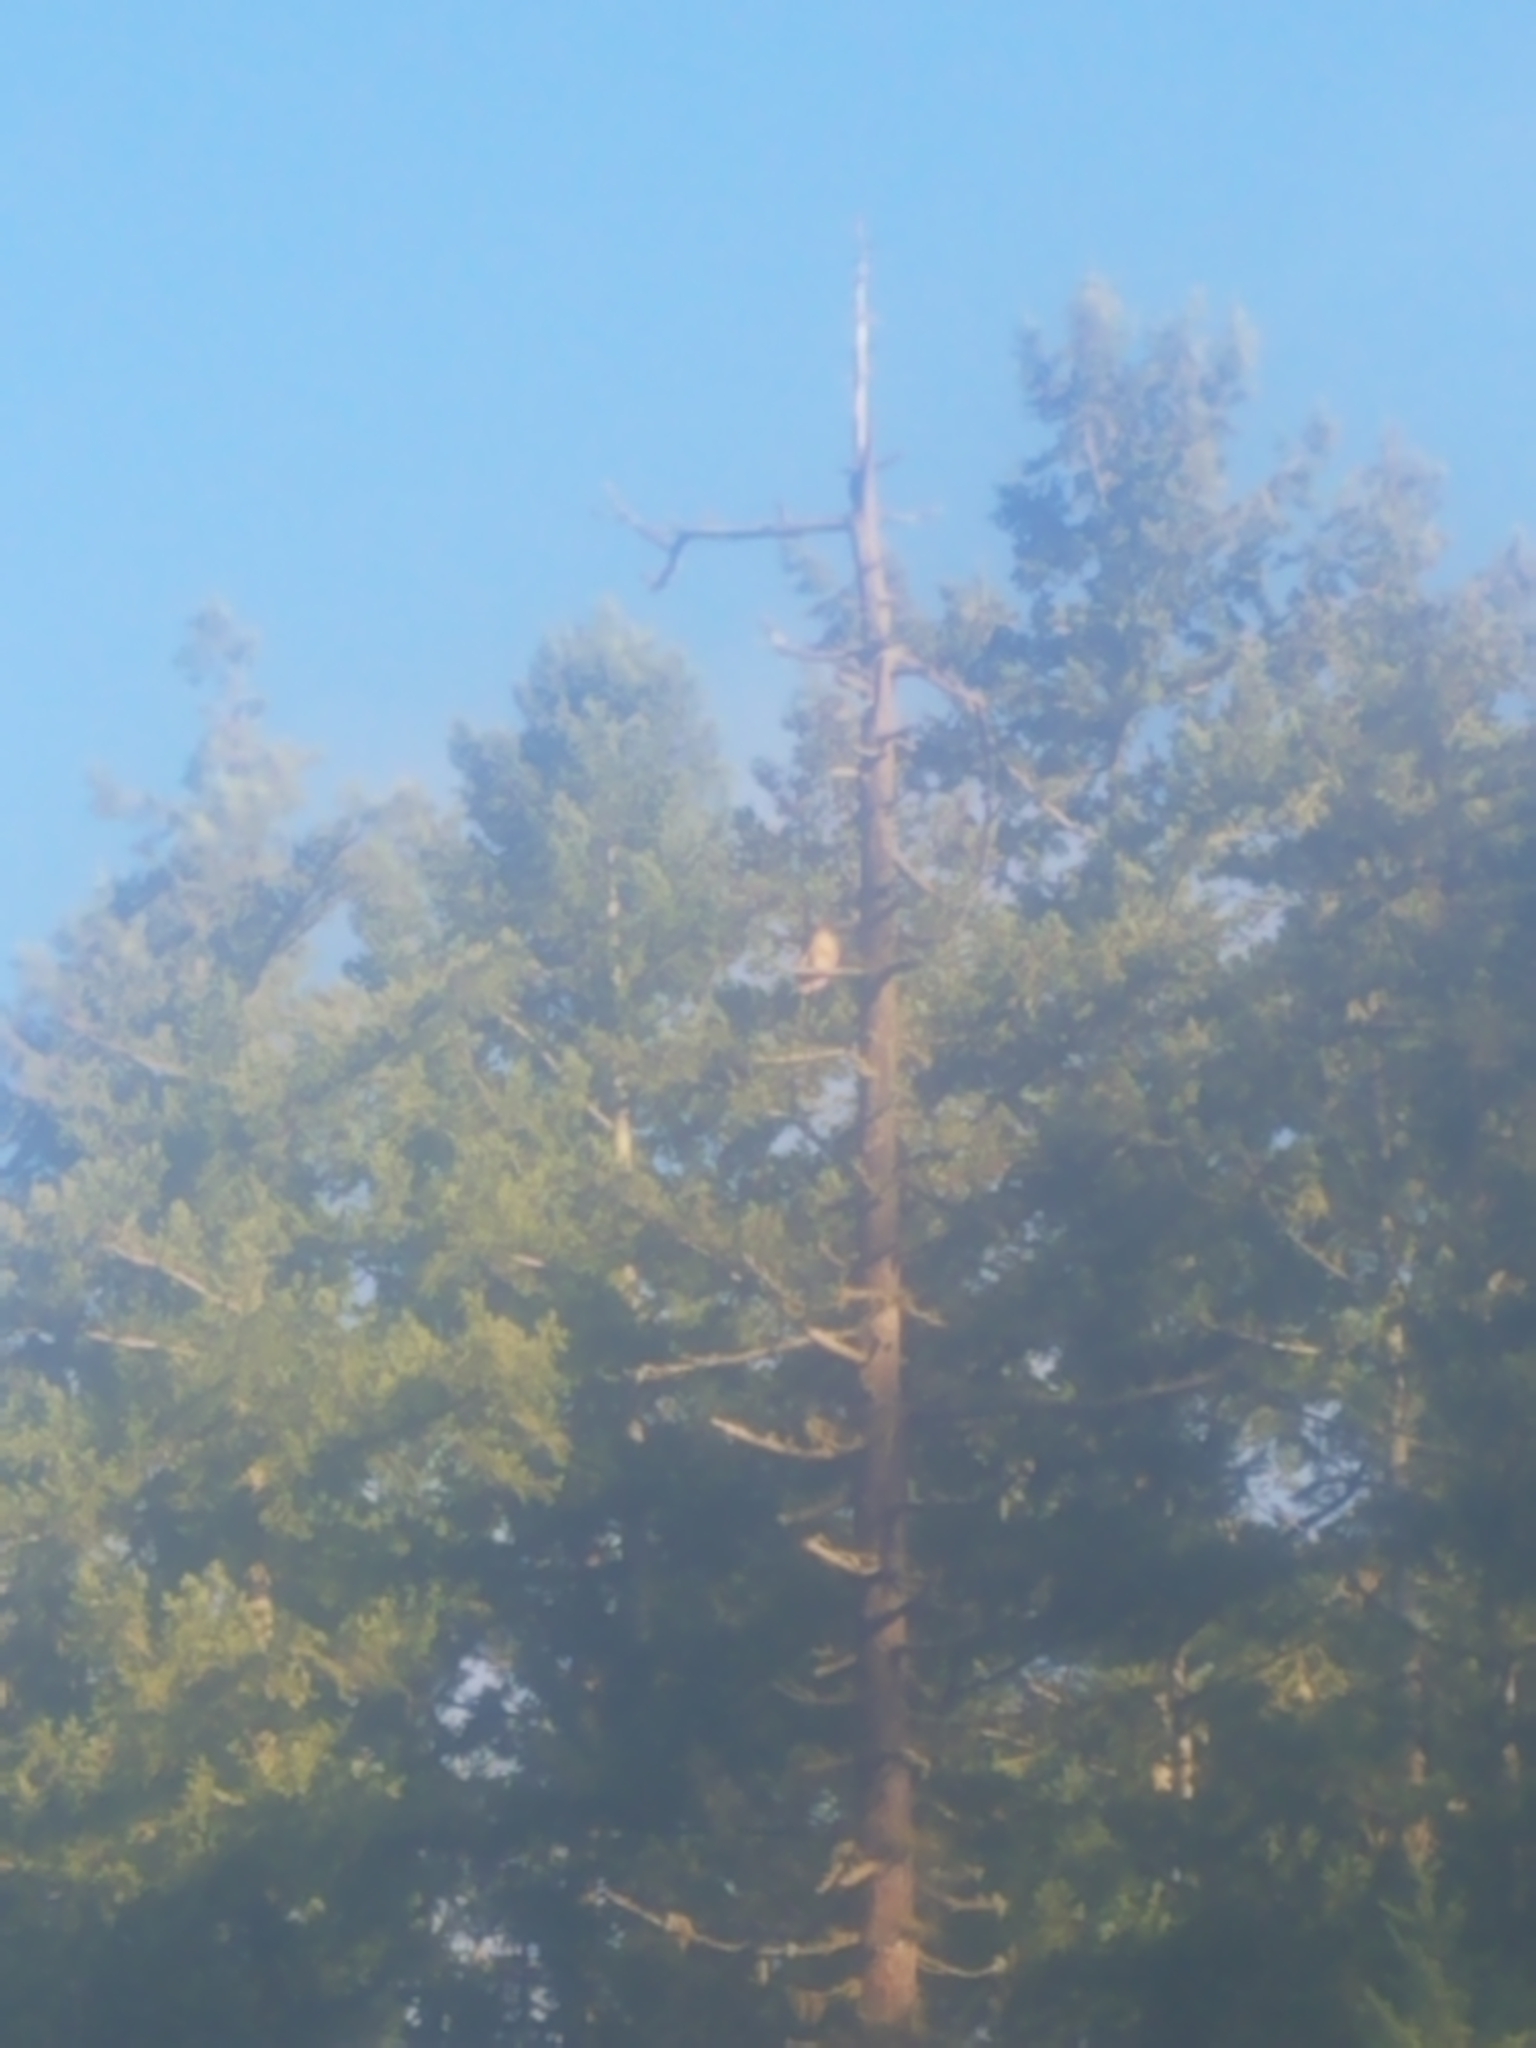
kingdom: Animalia
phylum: Chordata
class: Aves
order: Accipitriformes
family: Accipitridae
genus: Buteo
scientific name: Buteo jamaicensis
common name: Red-tailed hawk
